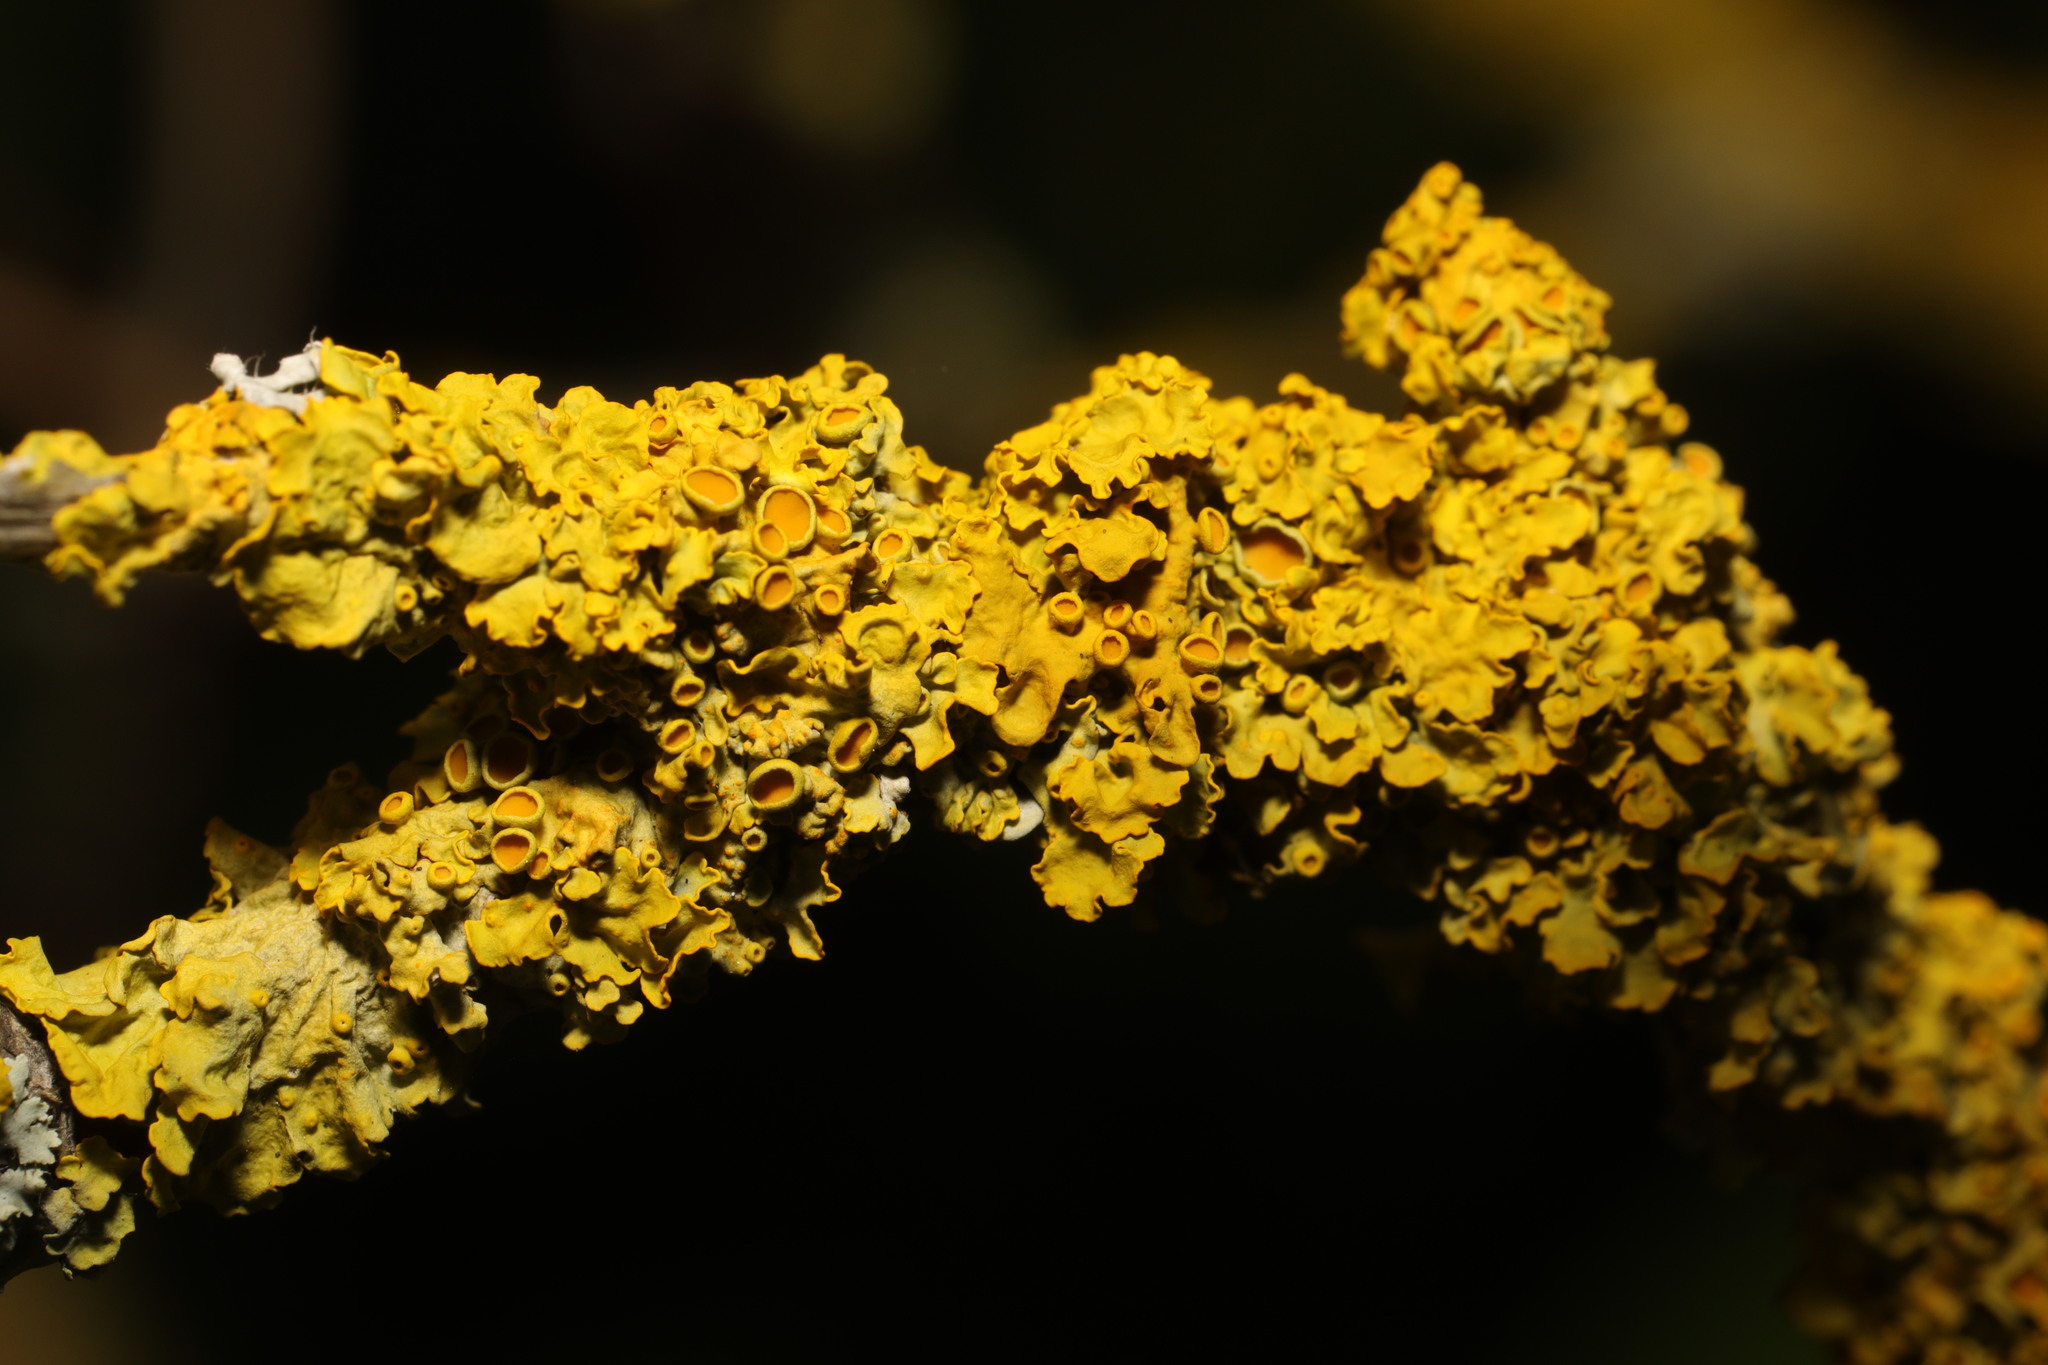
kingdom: Fungi
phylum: Ascomycota
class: Lecanoromycetes
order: Teloschistales
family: Teloschistaceae
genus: Xanthoria
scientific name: Xanthoria parietina
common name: Common orange lichen
